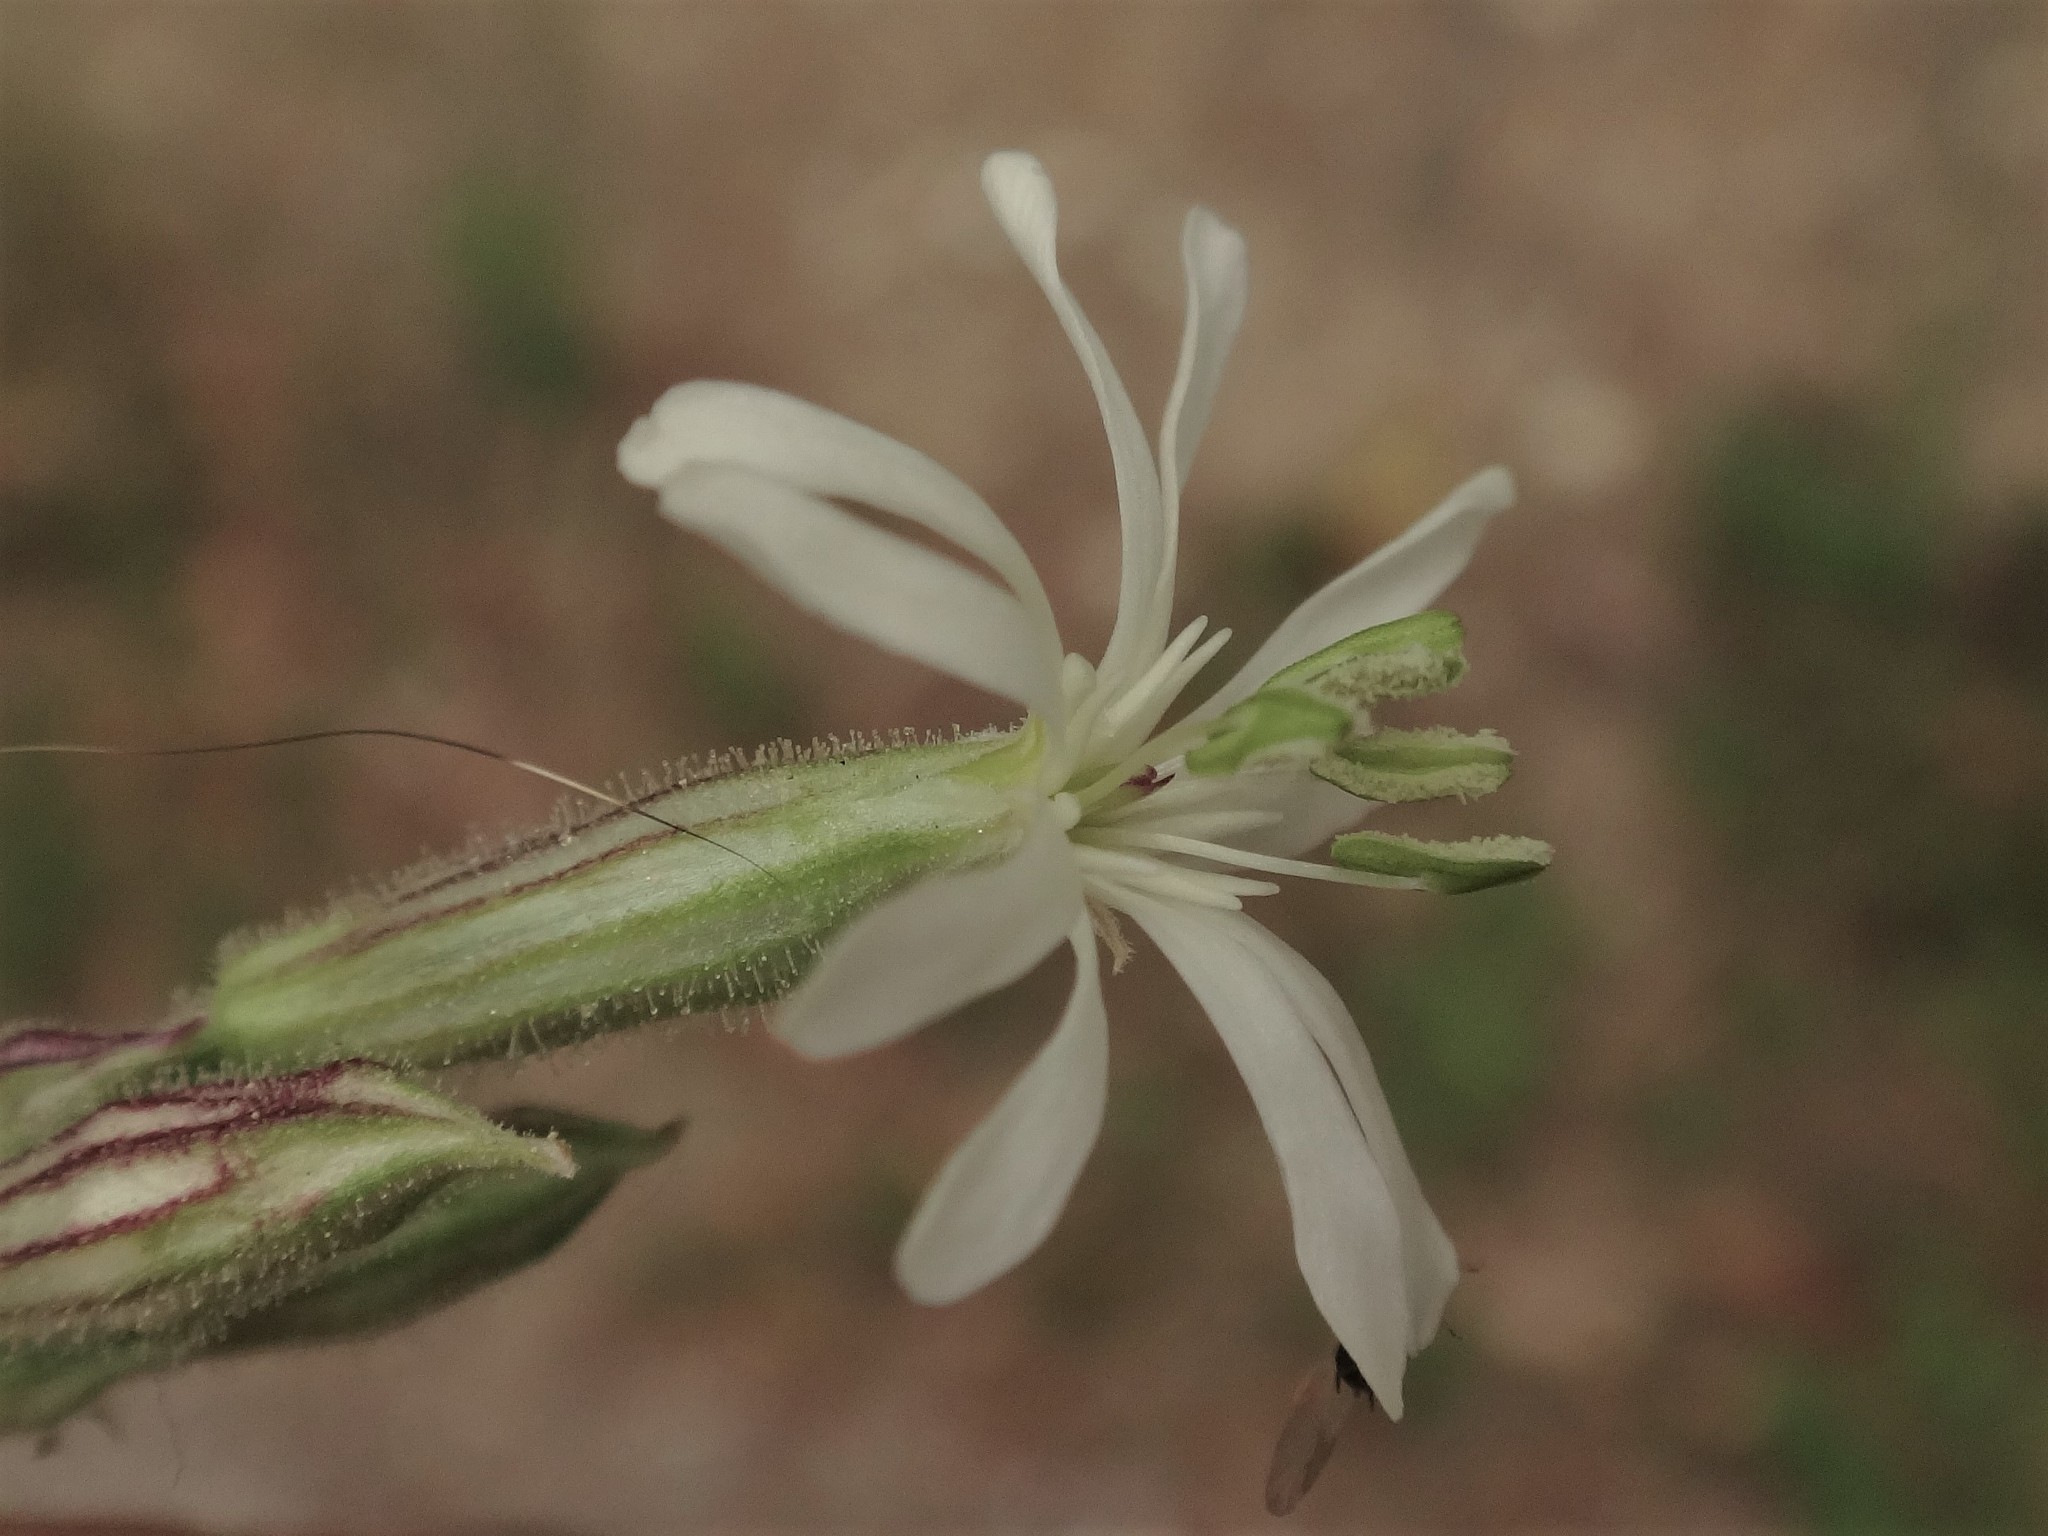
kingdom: Plantae
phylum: Tracheophyta
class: Magnoliopsida
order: Caryophyllales
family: Caryophyllaceae
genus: Silene
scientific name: Silene nutans
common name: Nottingham catchfly
